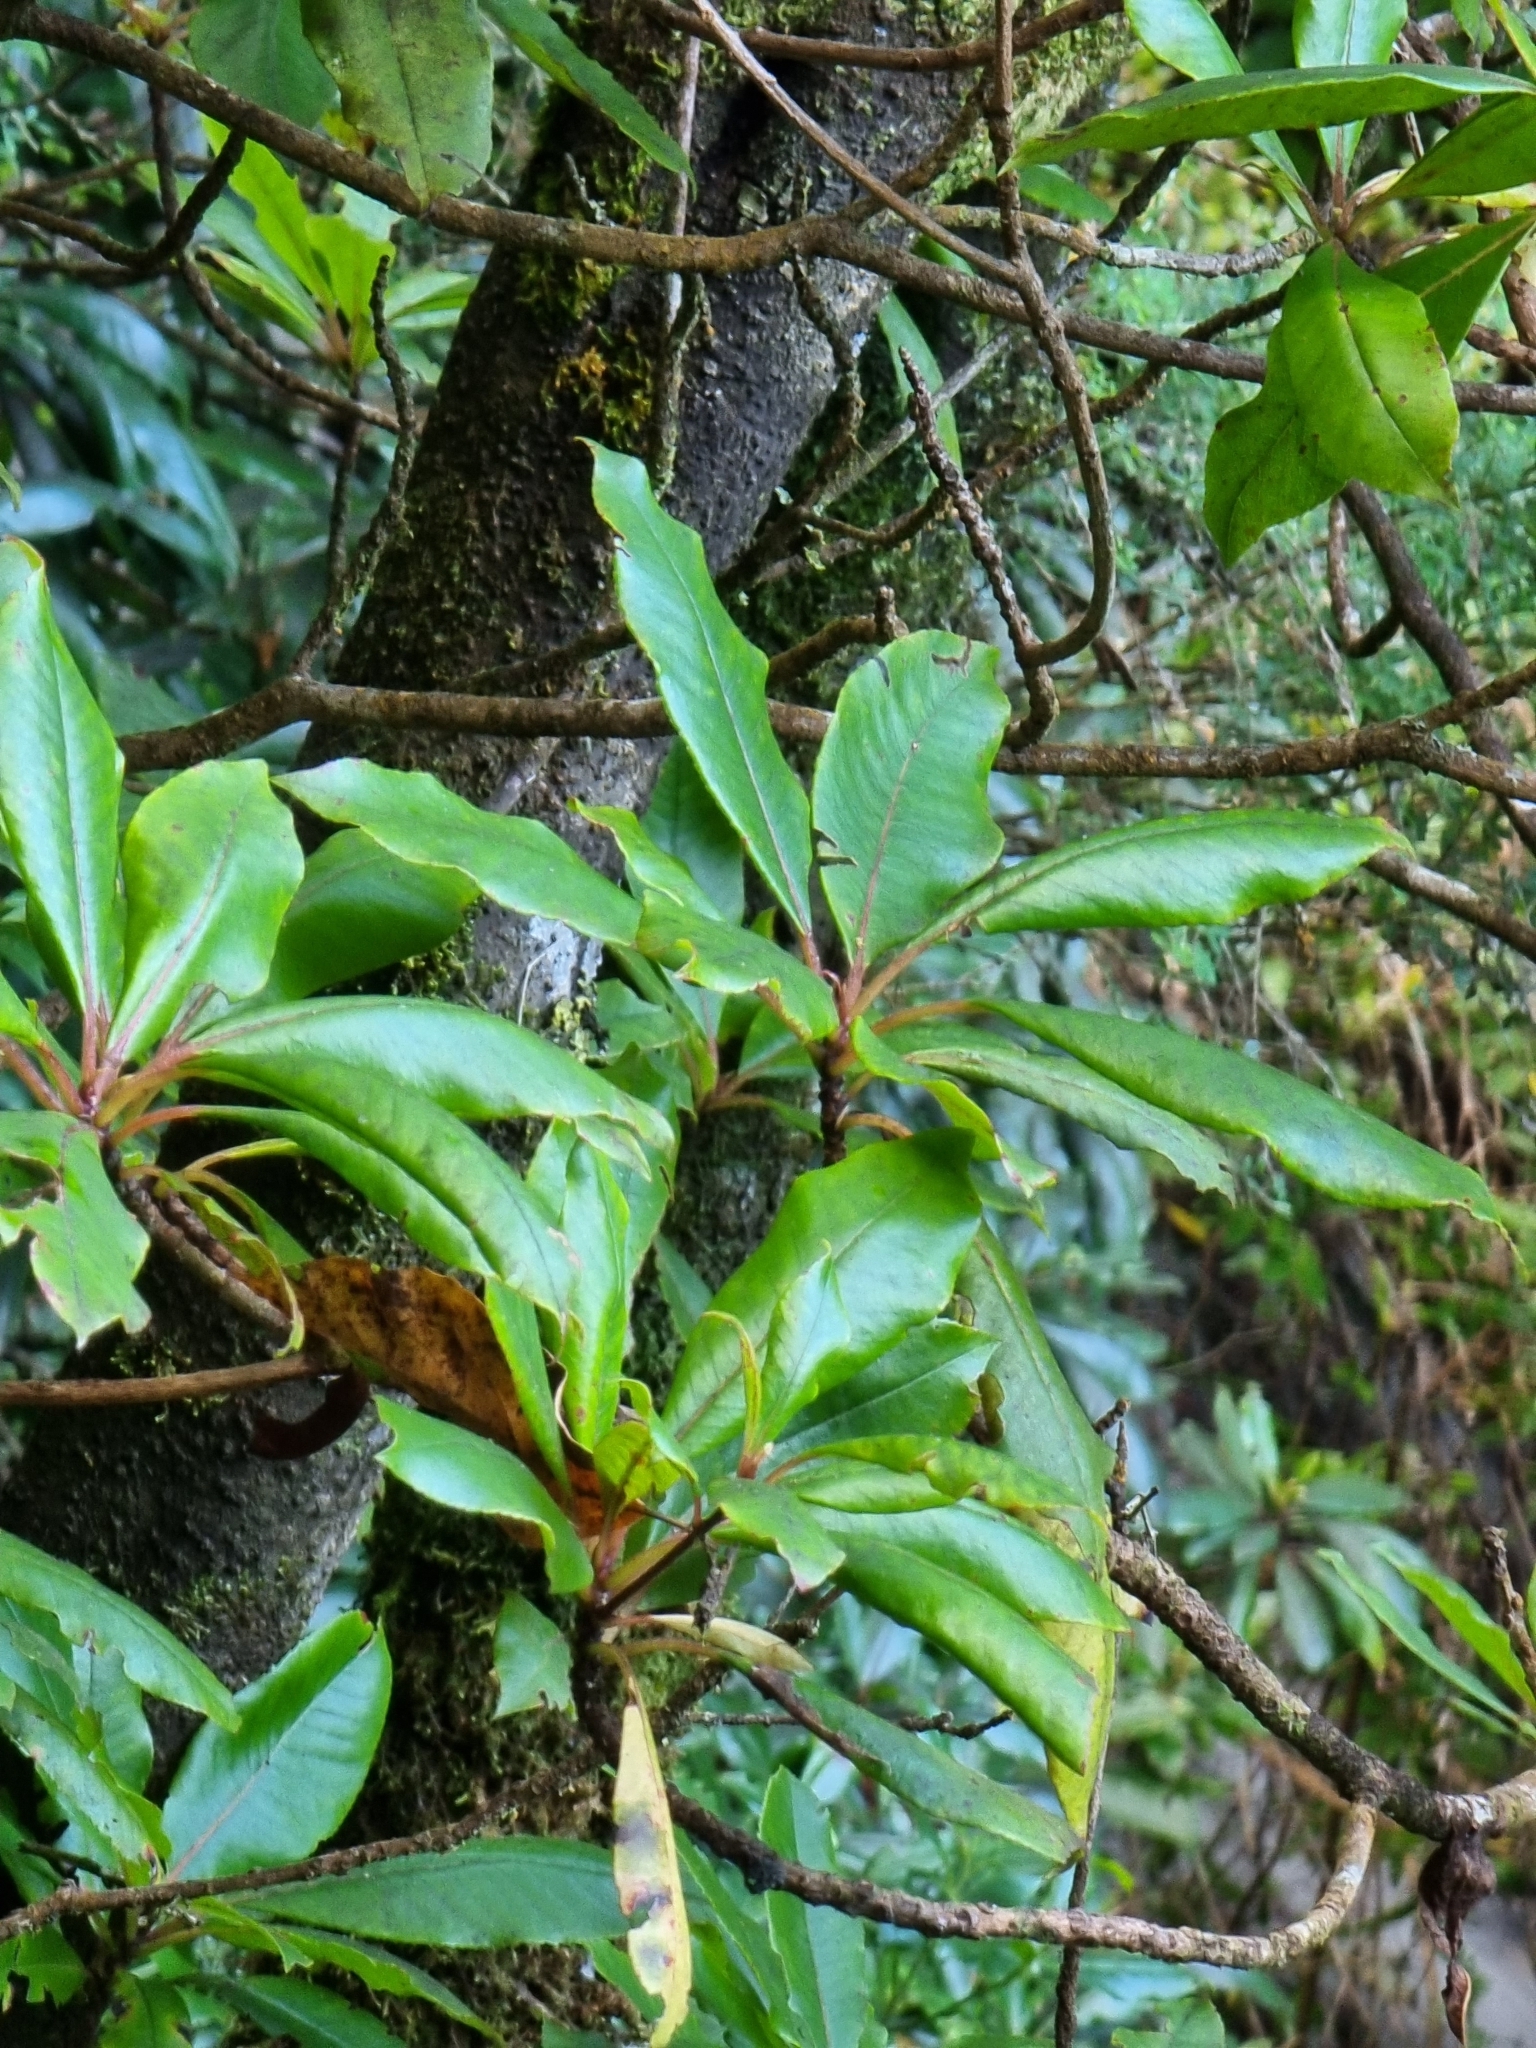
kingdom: Plantae
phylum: Tracheophyta
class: Magnoliopsida
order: Ericales
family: Clethraceae
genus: Clethra
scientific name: Clethra arborea
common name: Lily-of-the-valley-tree
